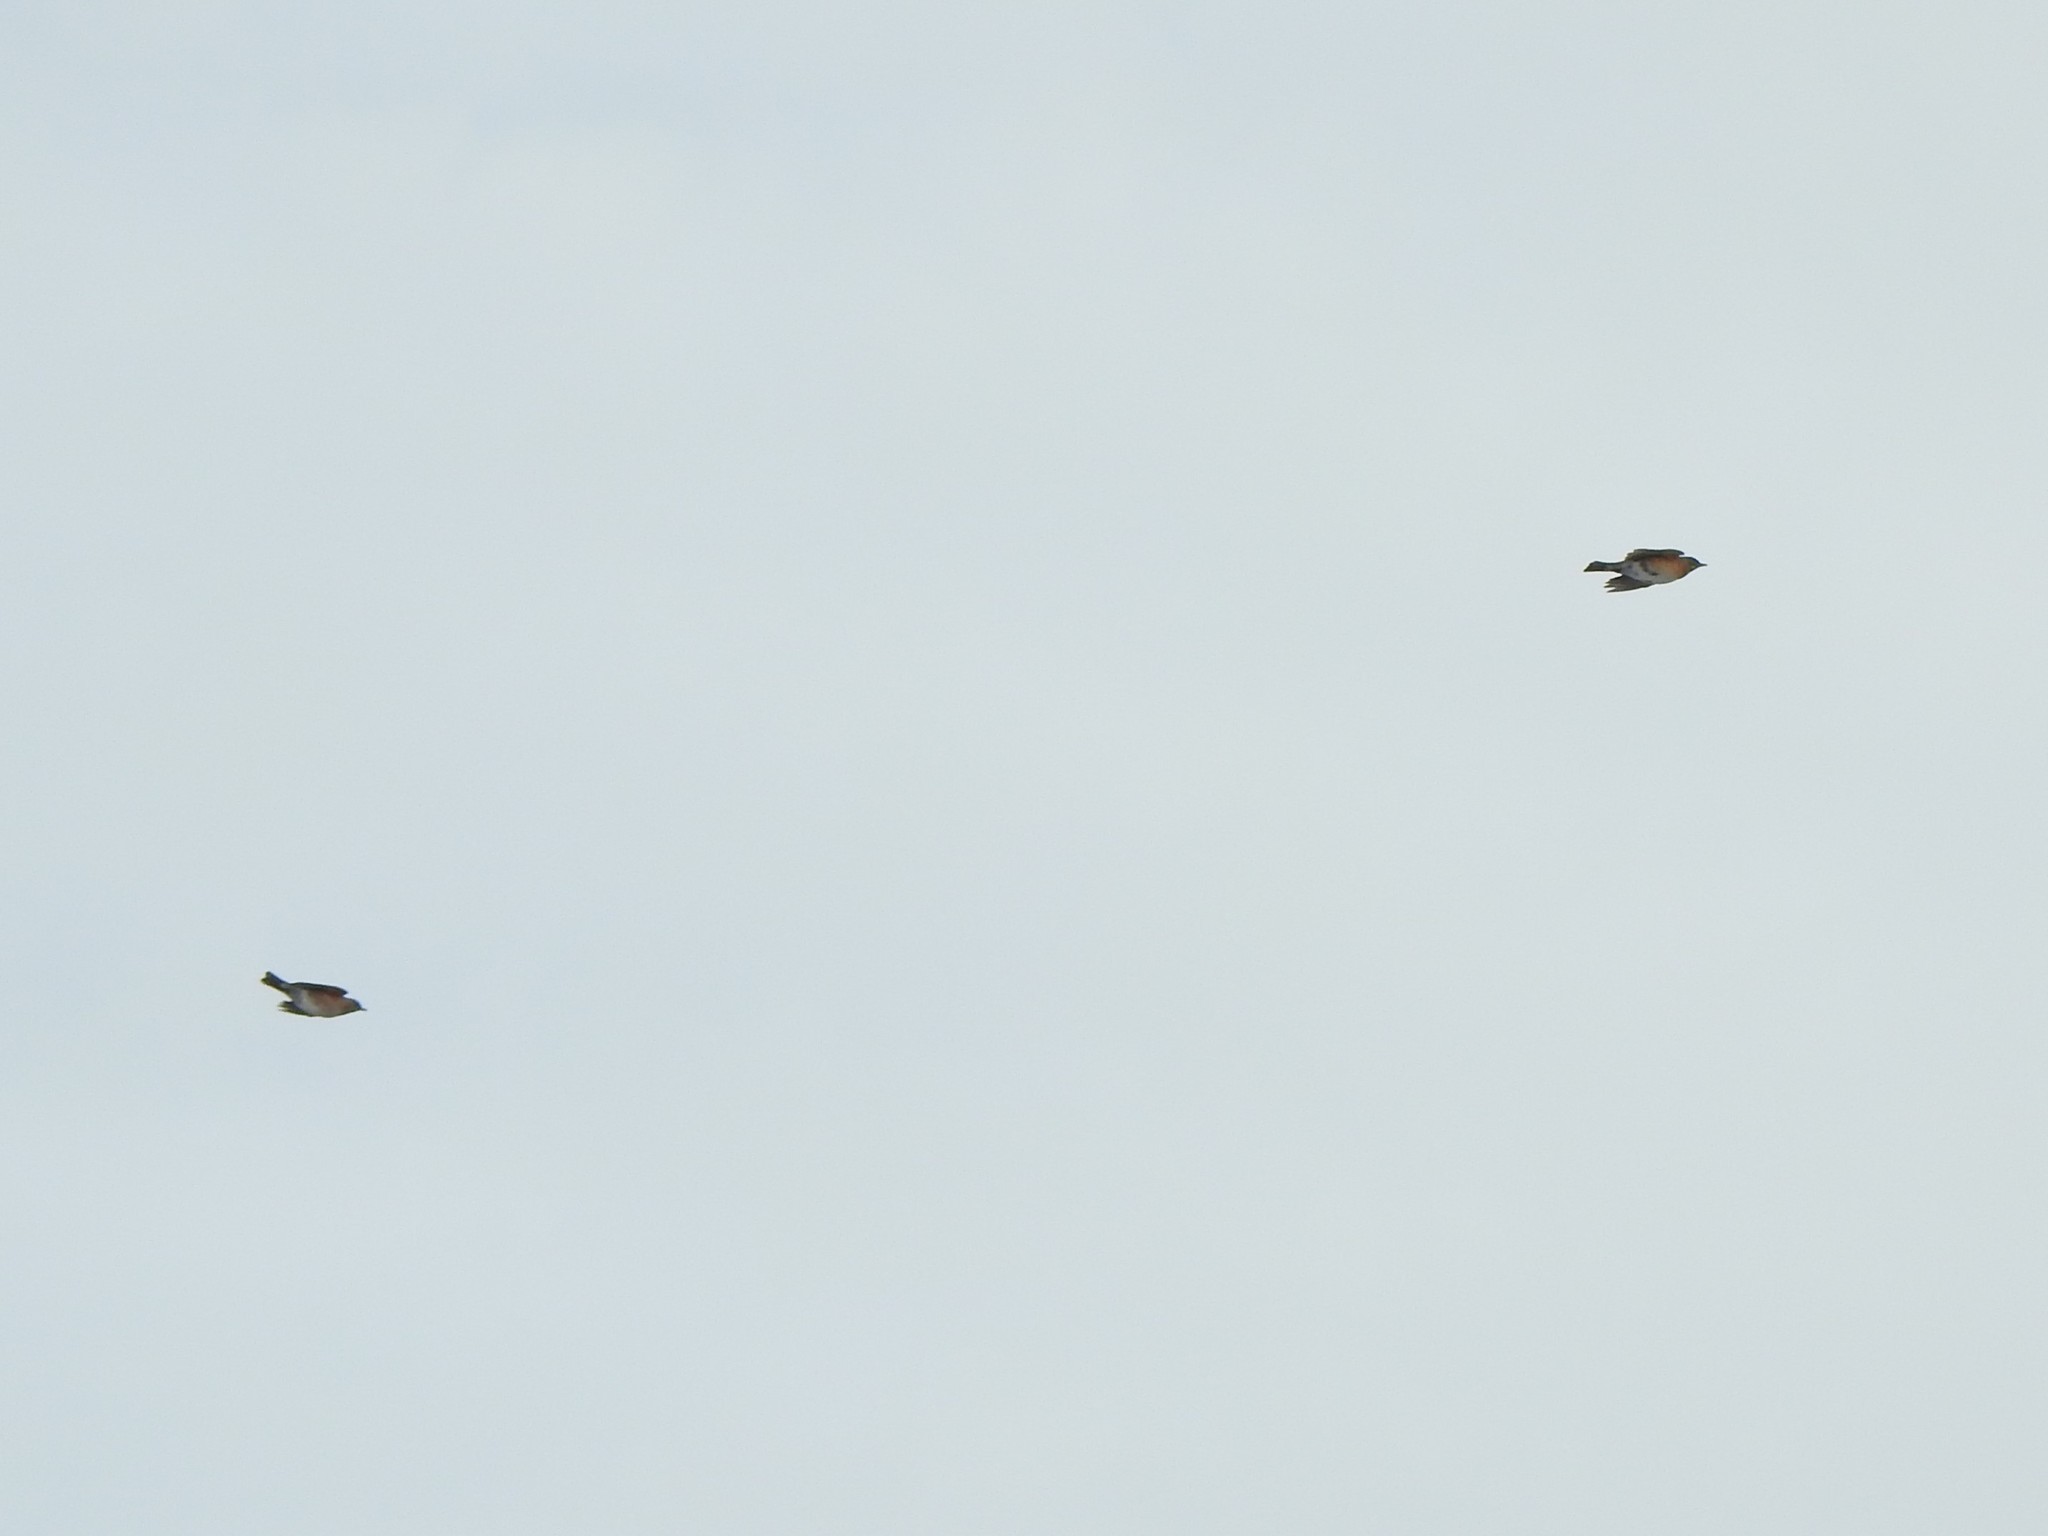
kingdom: Animalia
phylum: Chordata
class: Aves
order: Passeriformes
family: Turdidae
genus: Turdus
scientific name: Turdus migratorius
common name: American robin
